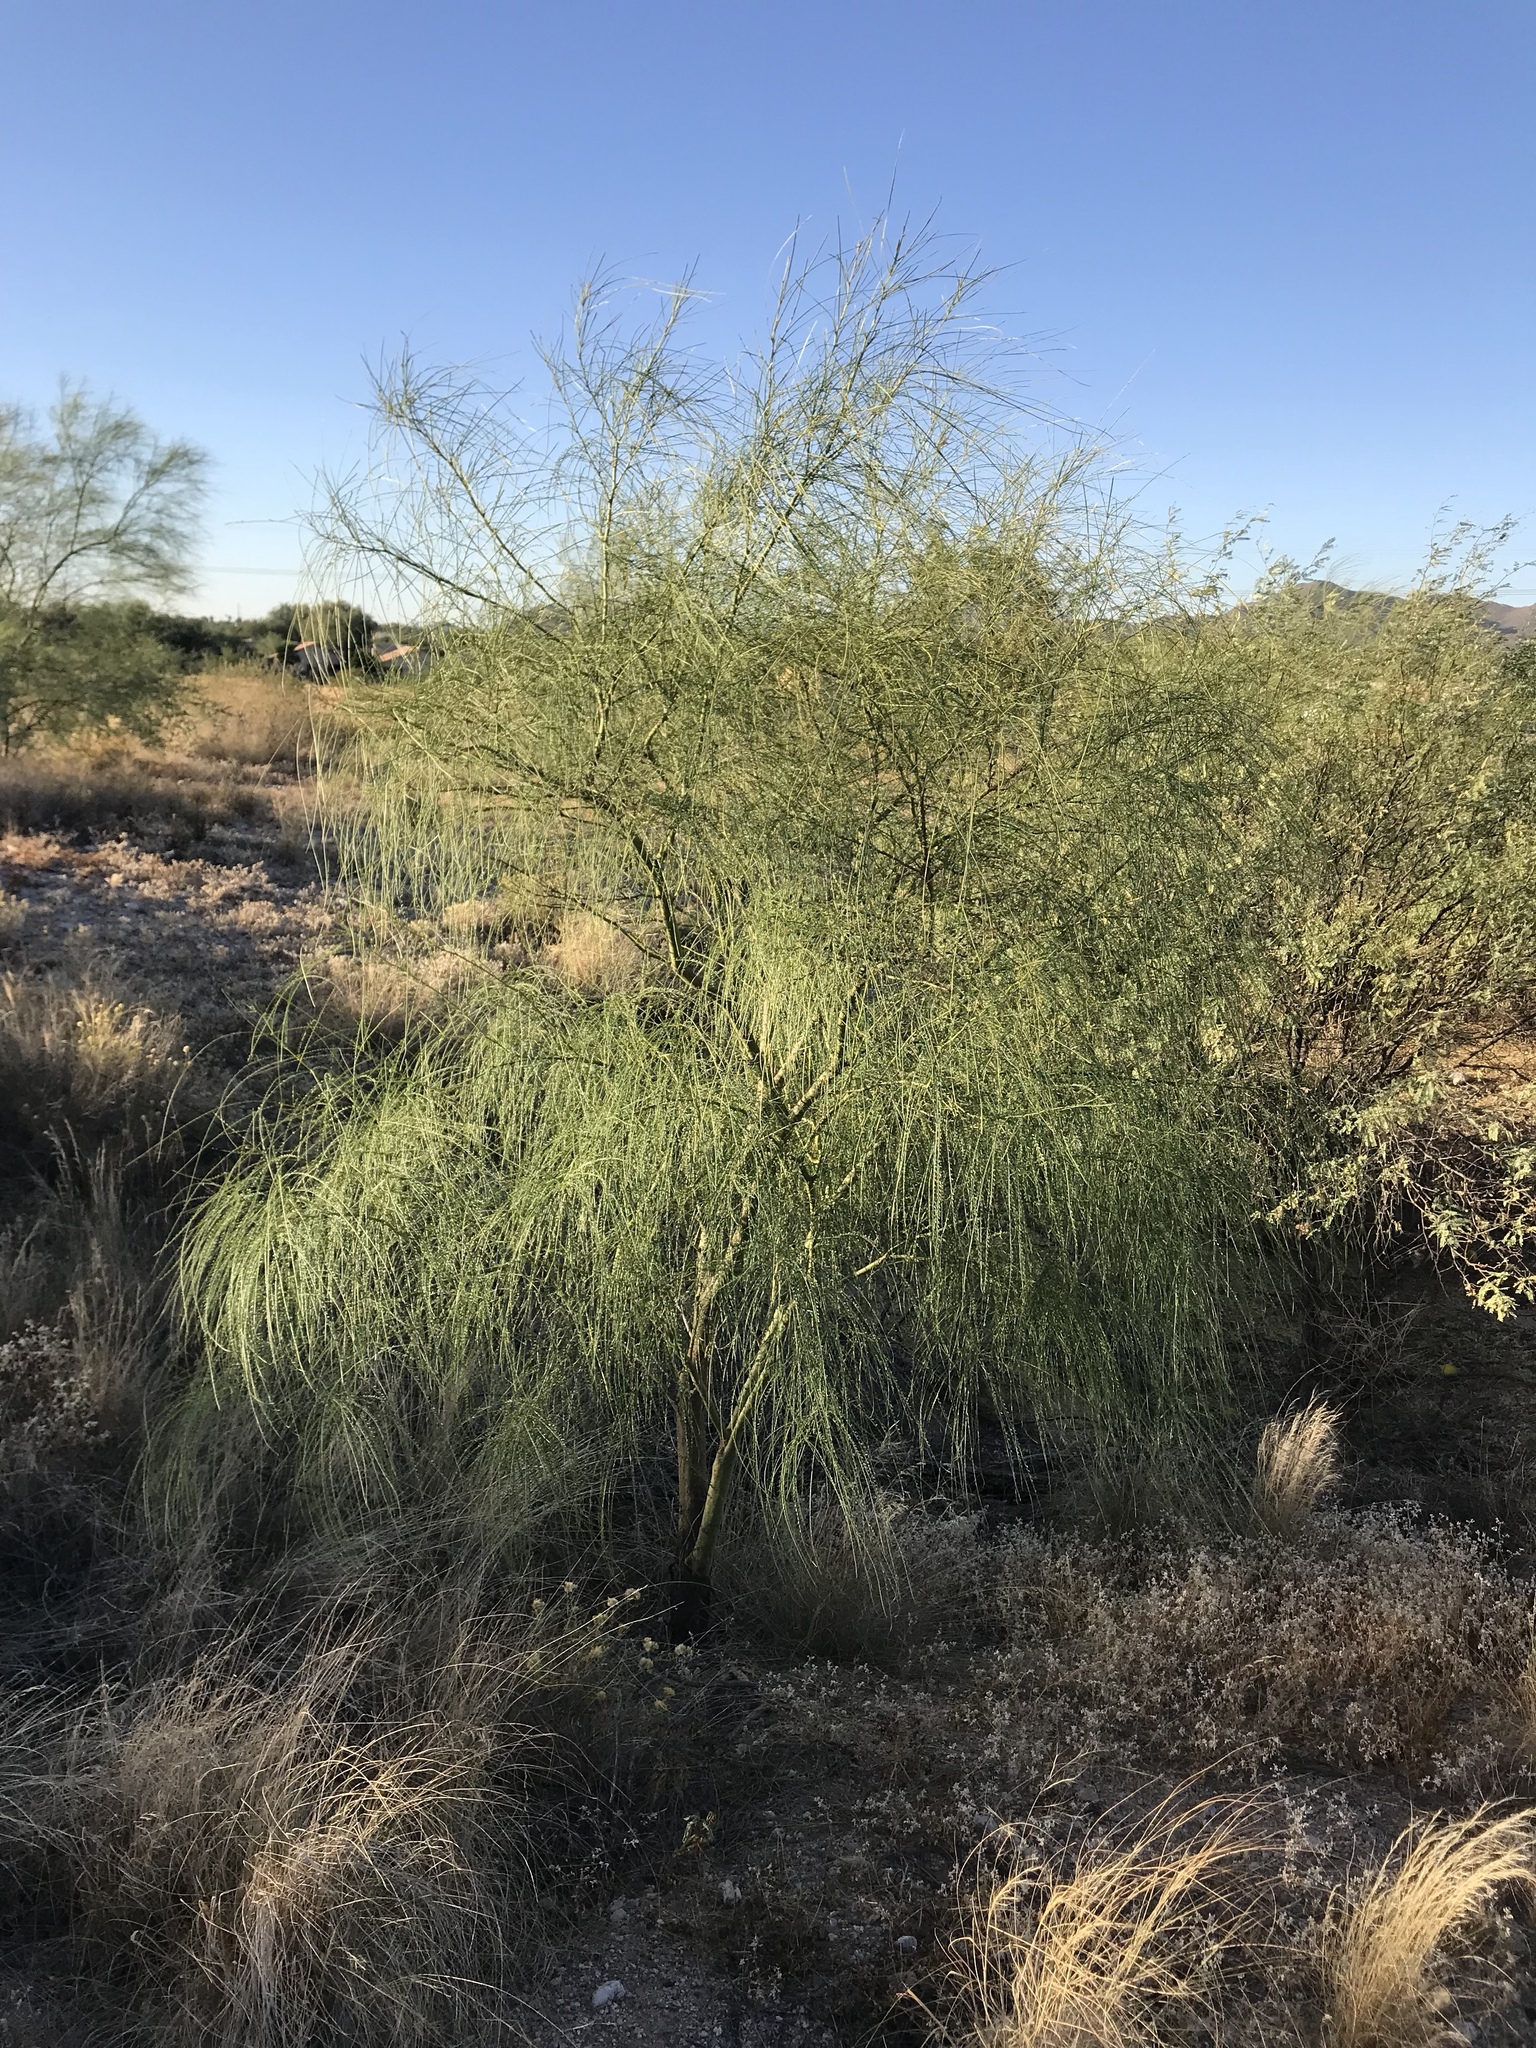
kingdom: Plantae
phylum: Tracheophyta
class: Magnoliopsida
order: Fabales
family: Fabaceae
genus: Parkinsonia
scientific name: Parkinsonia aculeata
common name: Jerusalem thorn
